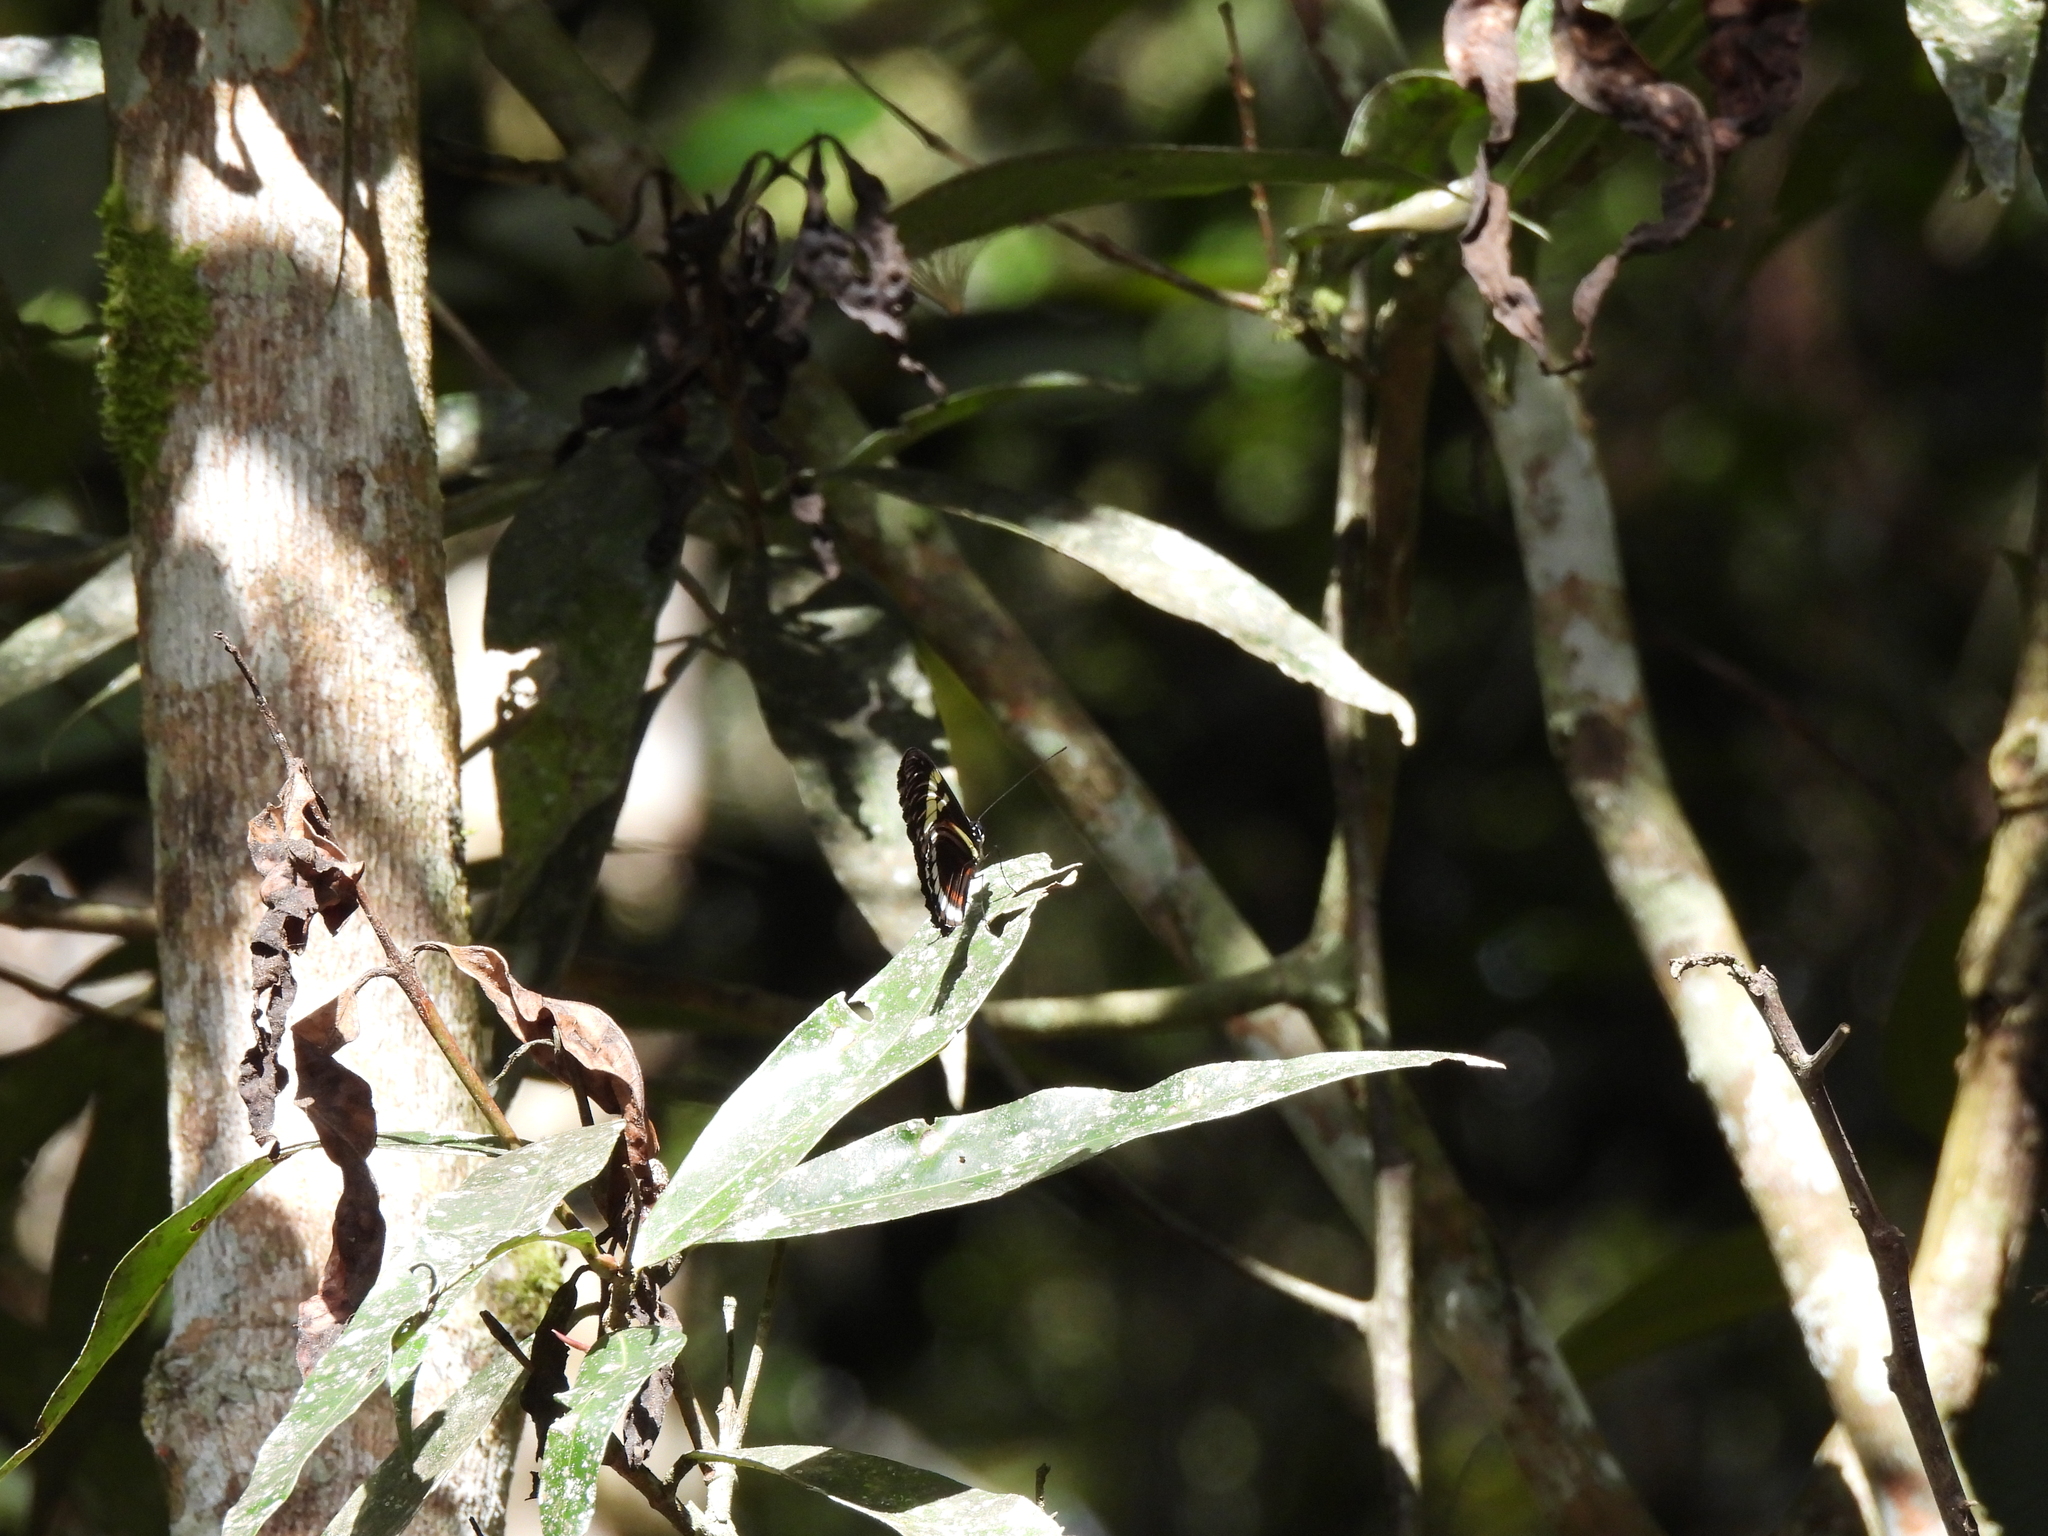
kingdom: Animalia
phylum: Arthropoda
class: Insecta
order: Lepidoptera
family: Nymphalidae
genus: Heliconius
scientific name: Heliconius cydno
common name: Cydno longwing
